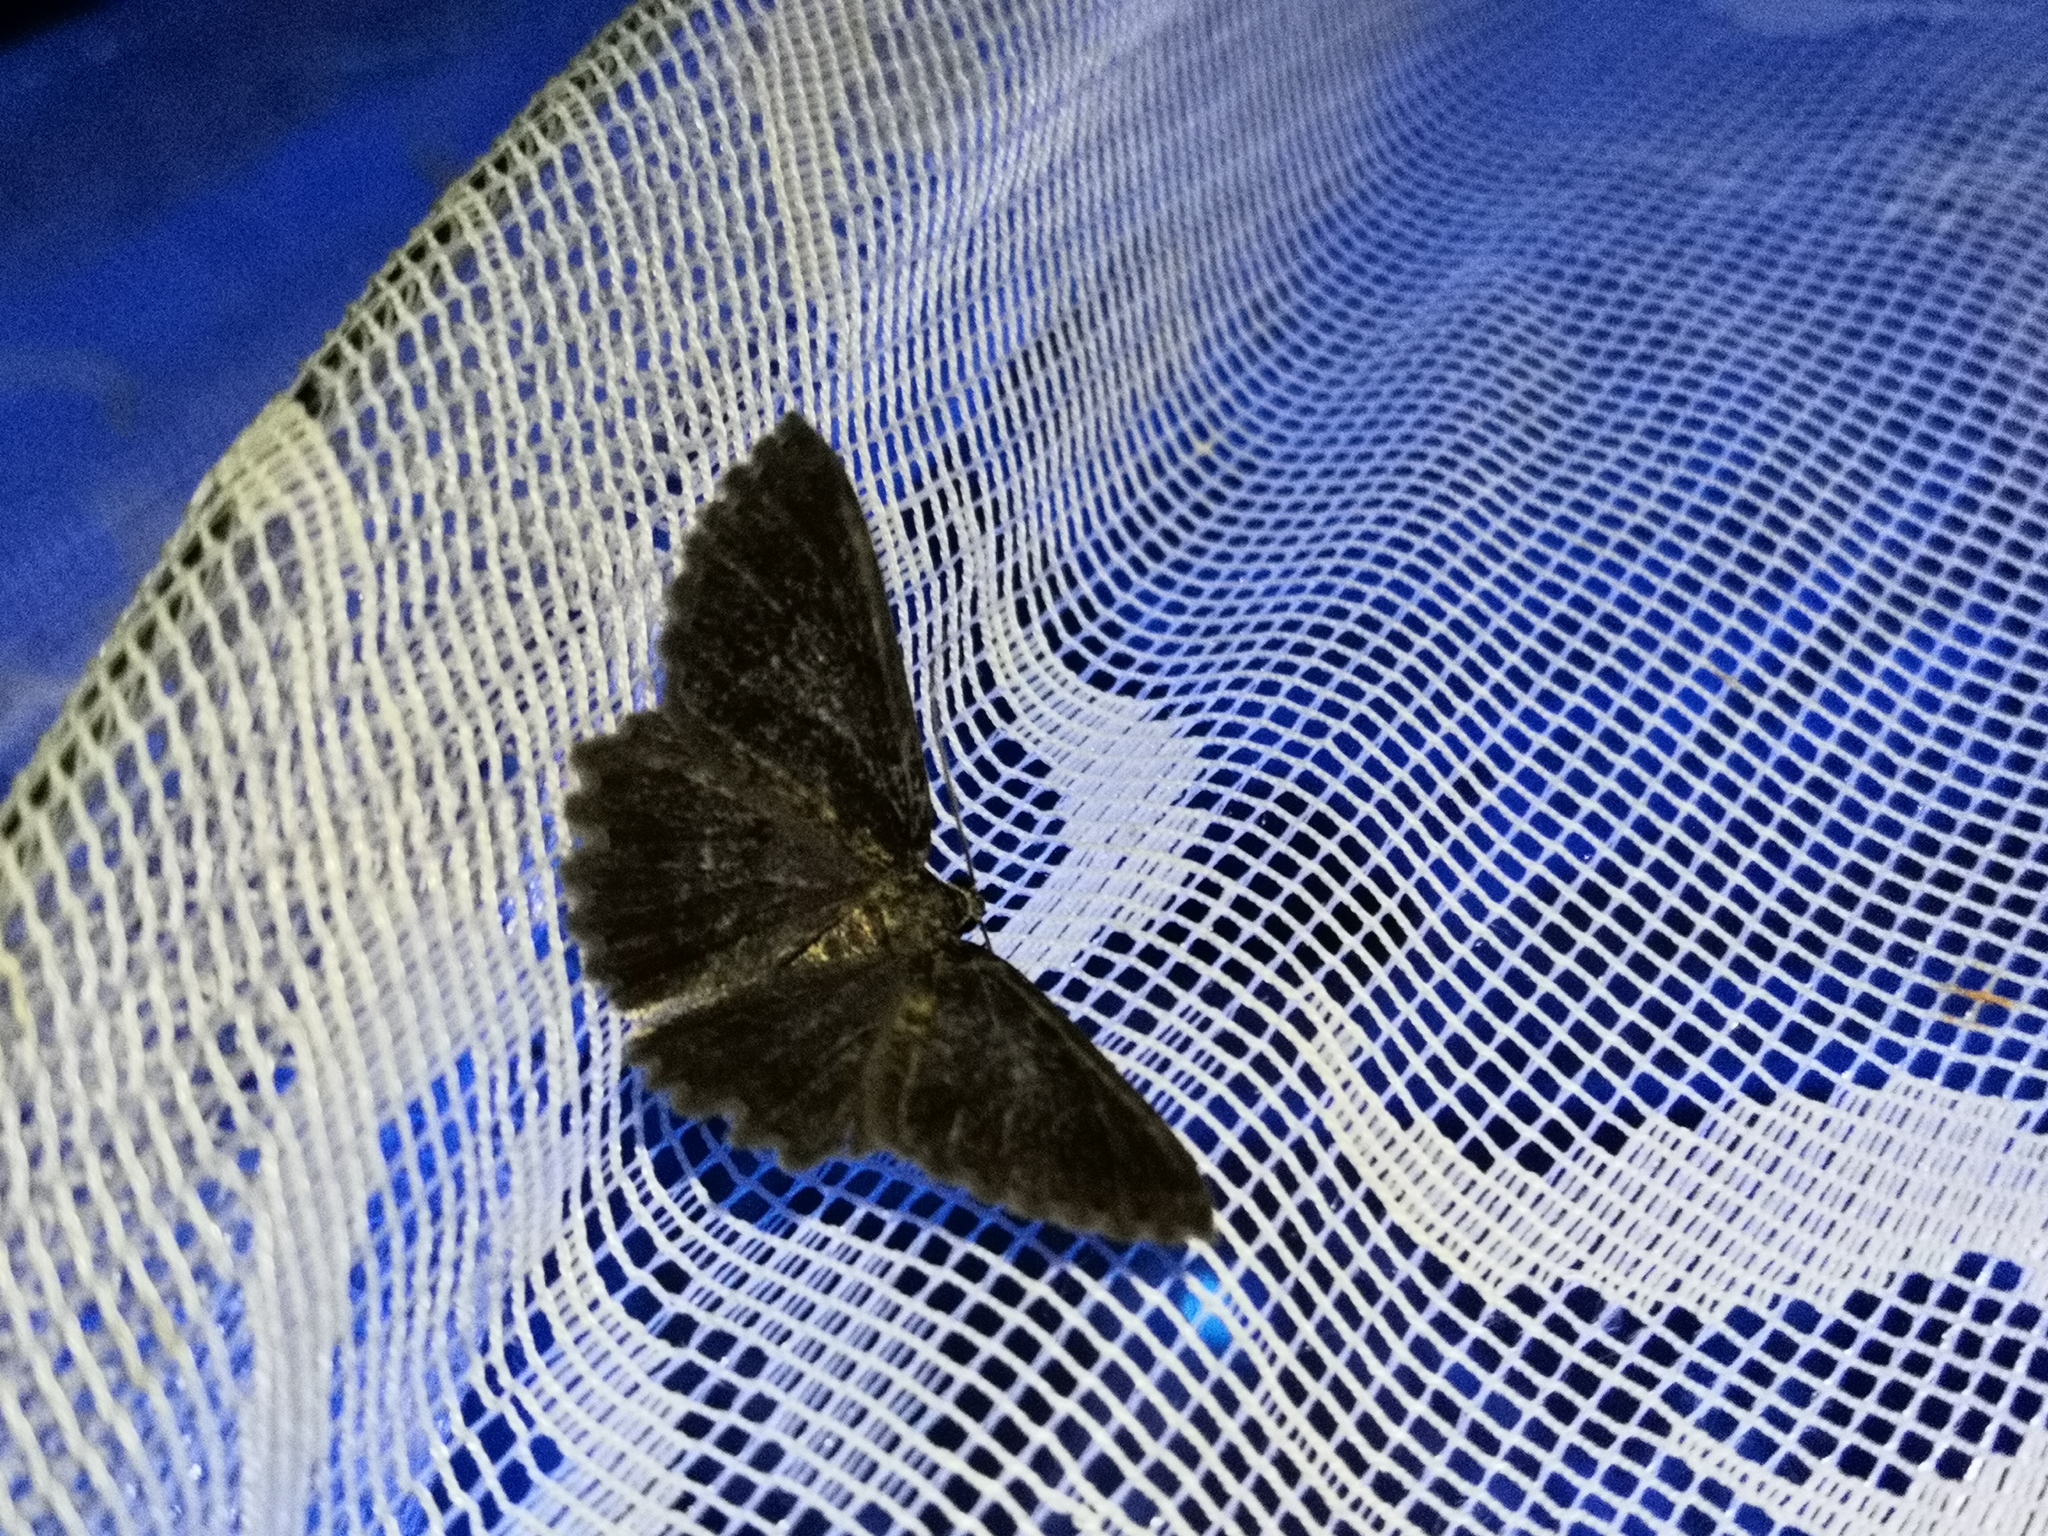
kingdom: Animalia
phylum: Arthropoda
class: Insecta
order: Lepidoptera
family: Geometridae
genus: Charissa
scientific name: Charissa obscurata
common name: Annulet
